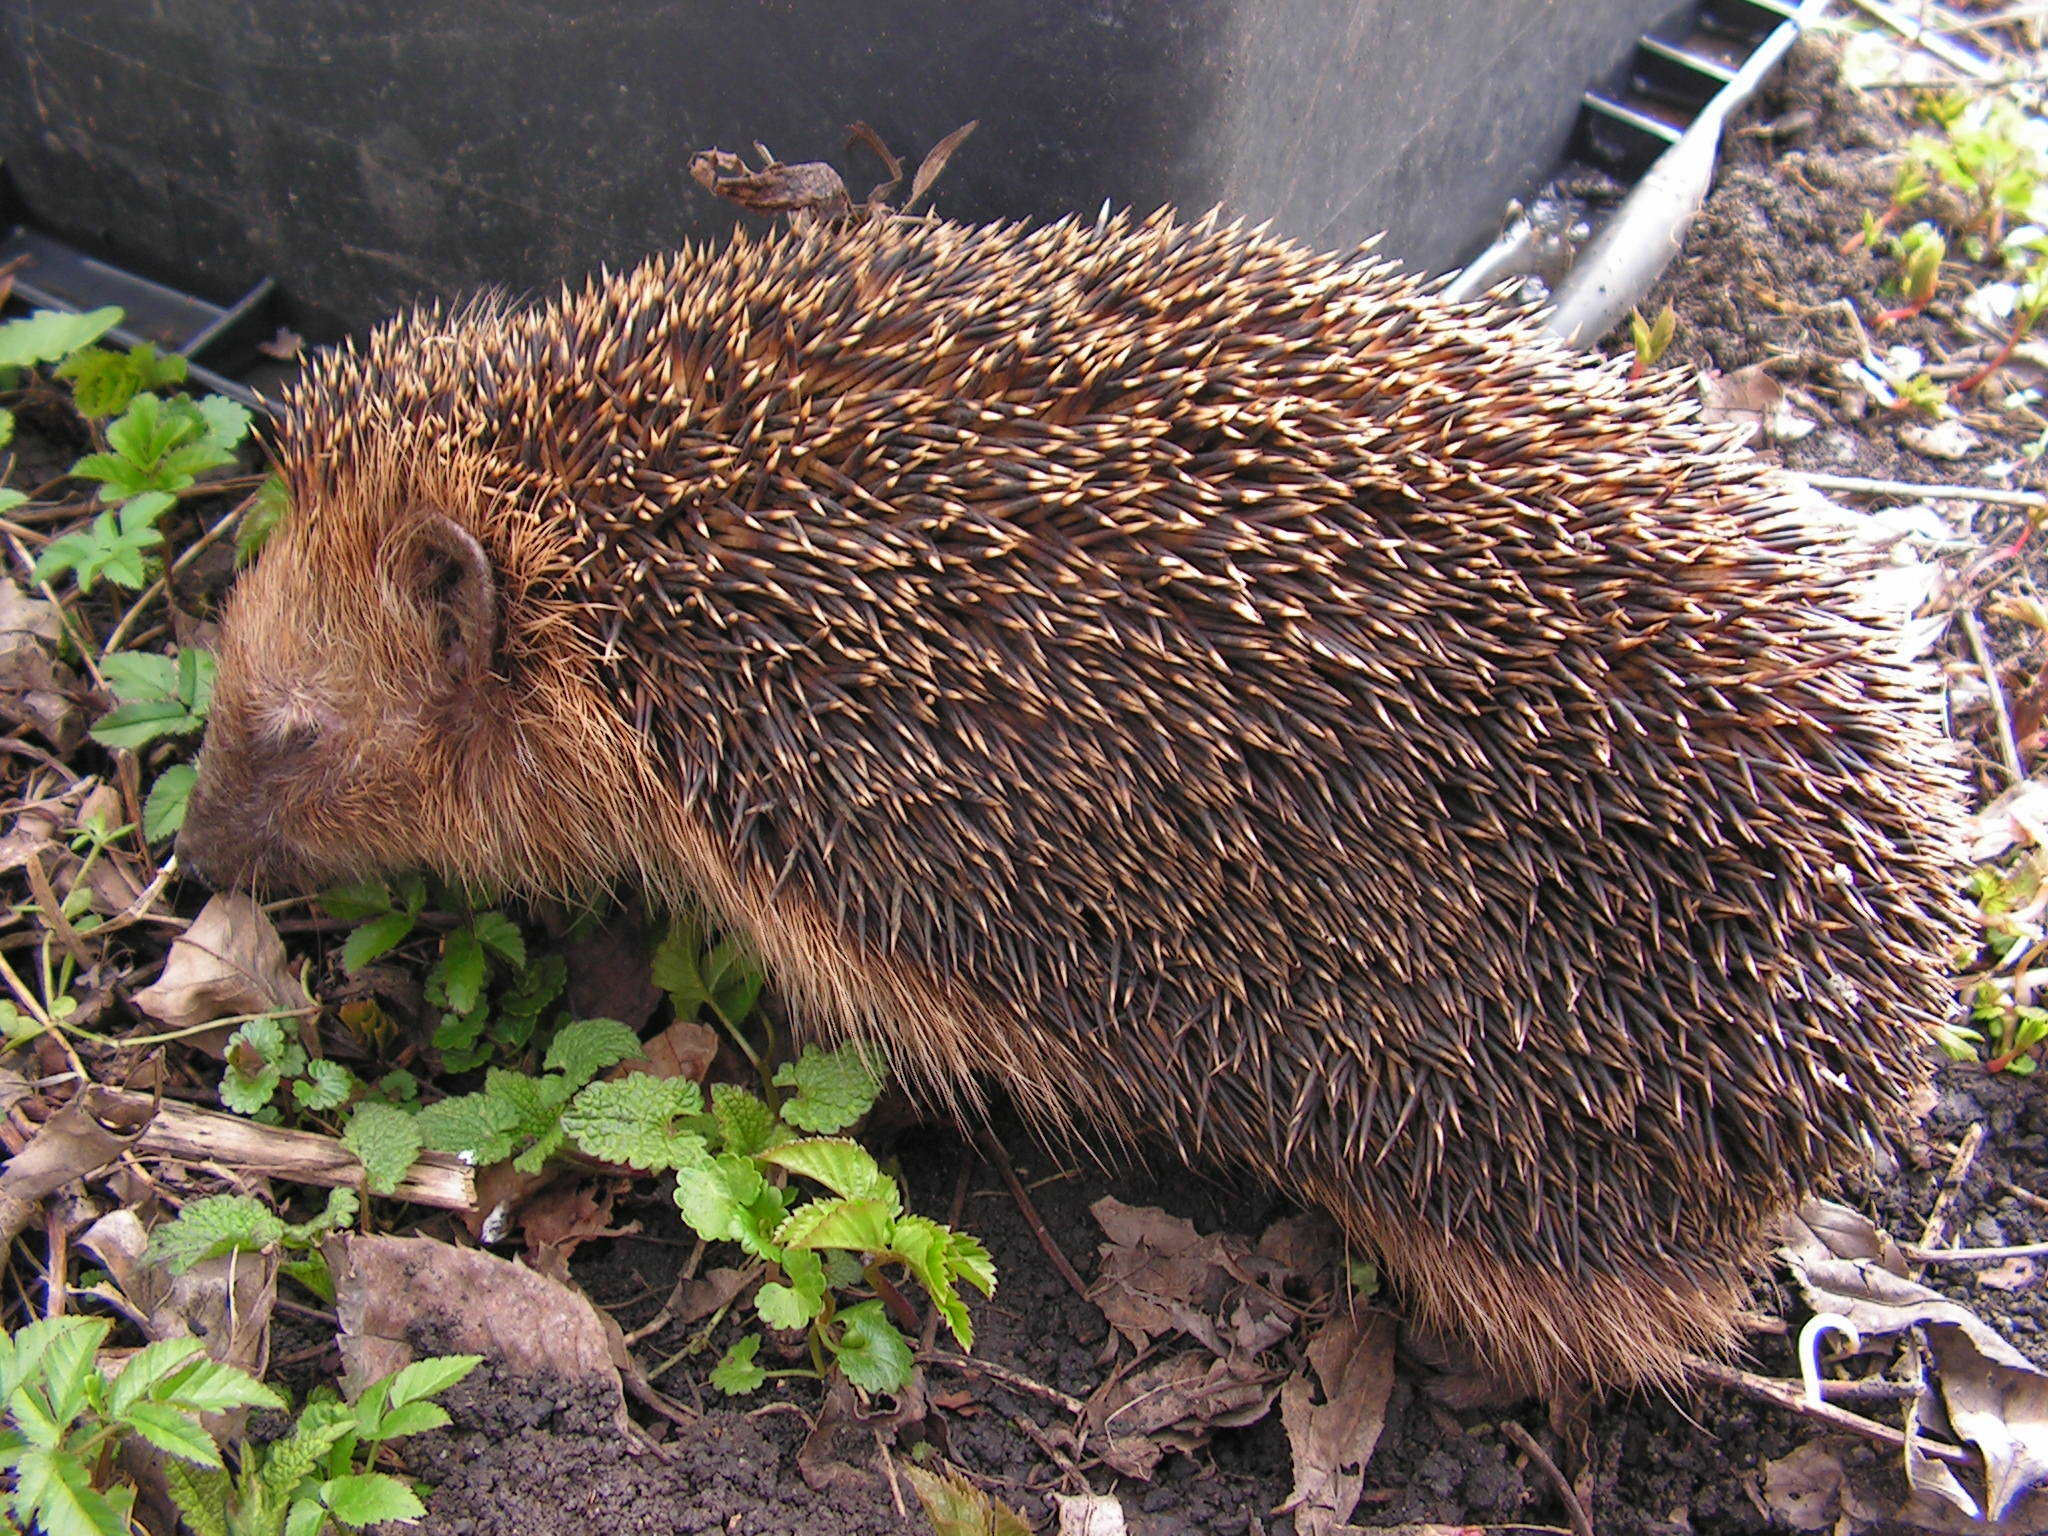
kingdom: Animalia
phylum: Chordata
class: Mammalia
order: Erinaceomorpha
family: Erinaceidae
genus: Erinaceus
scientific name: Erinaceus europaeus
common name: West european hedgehog
